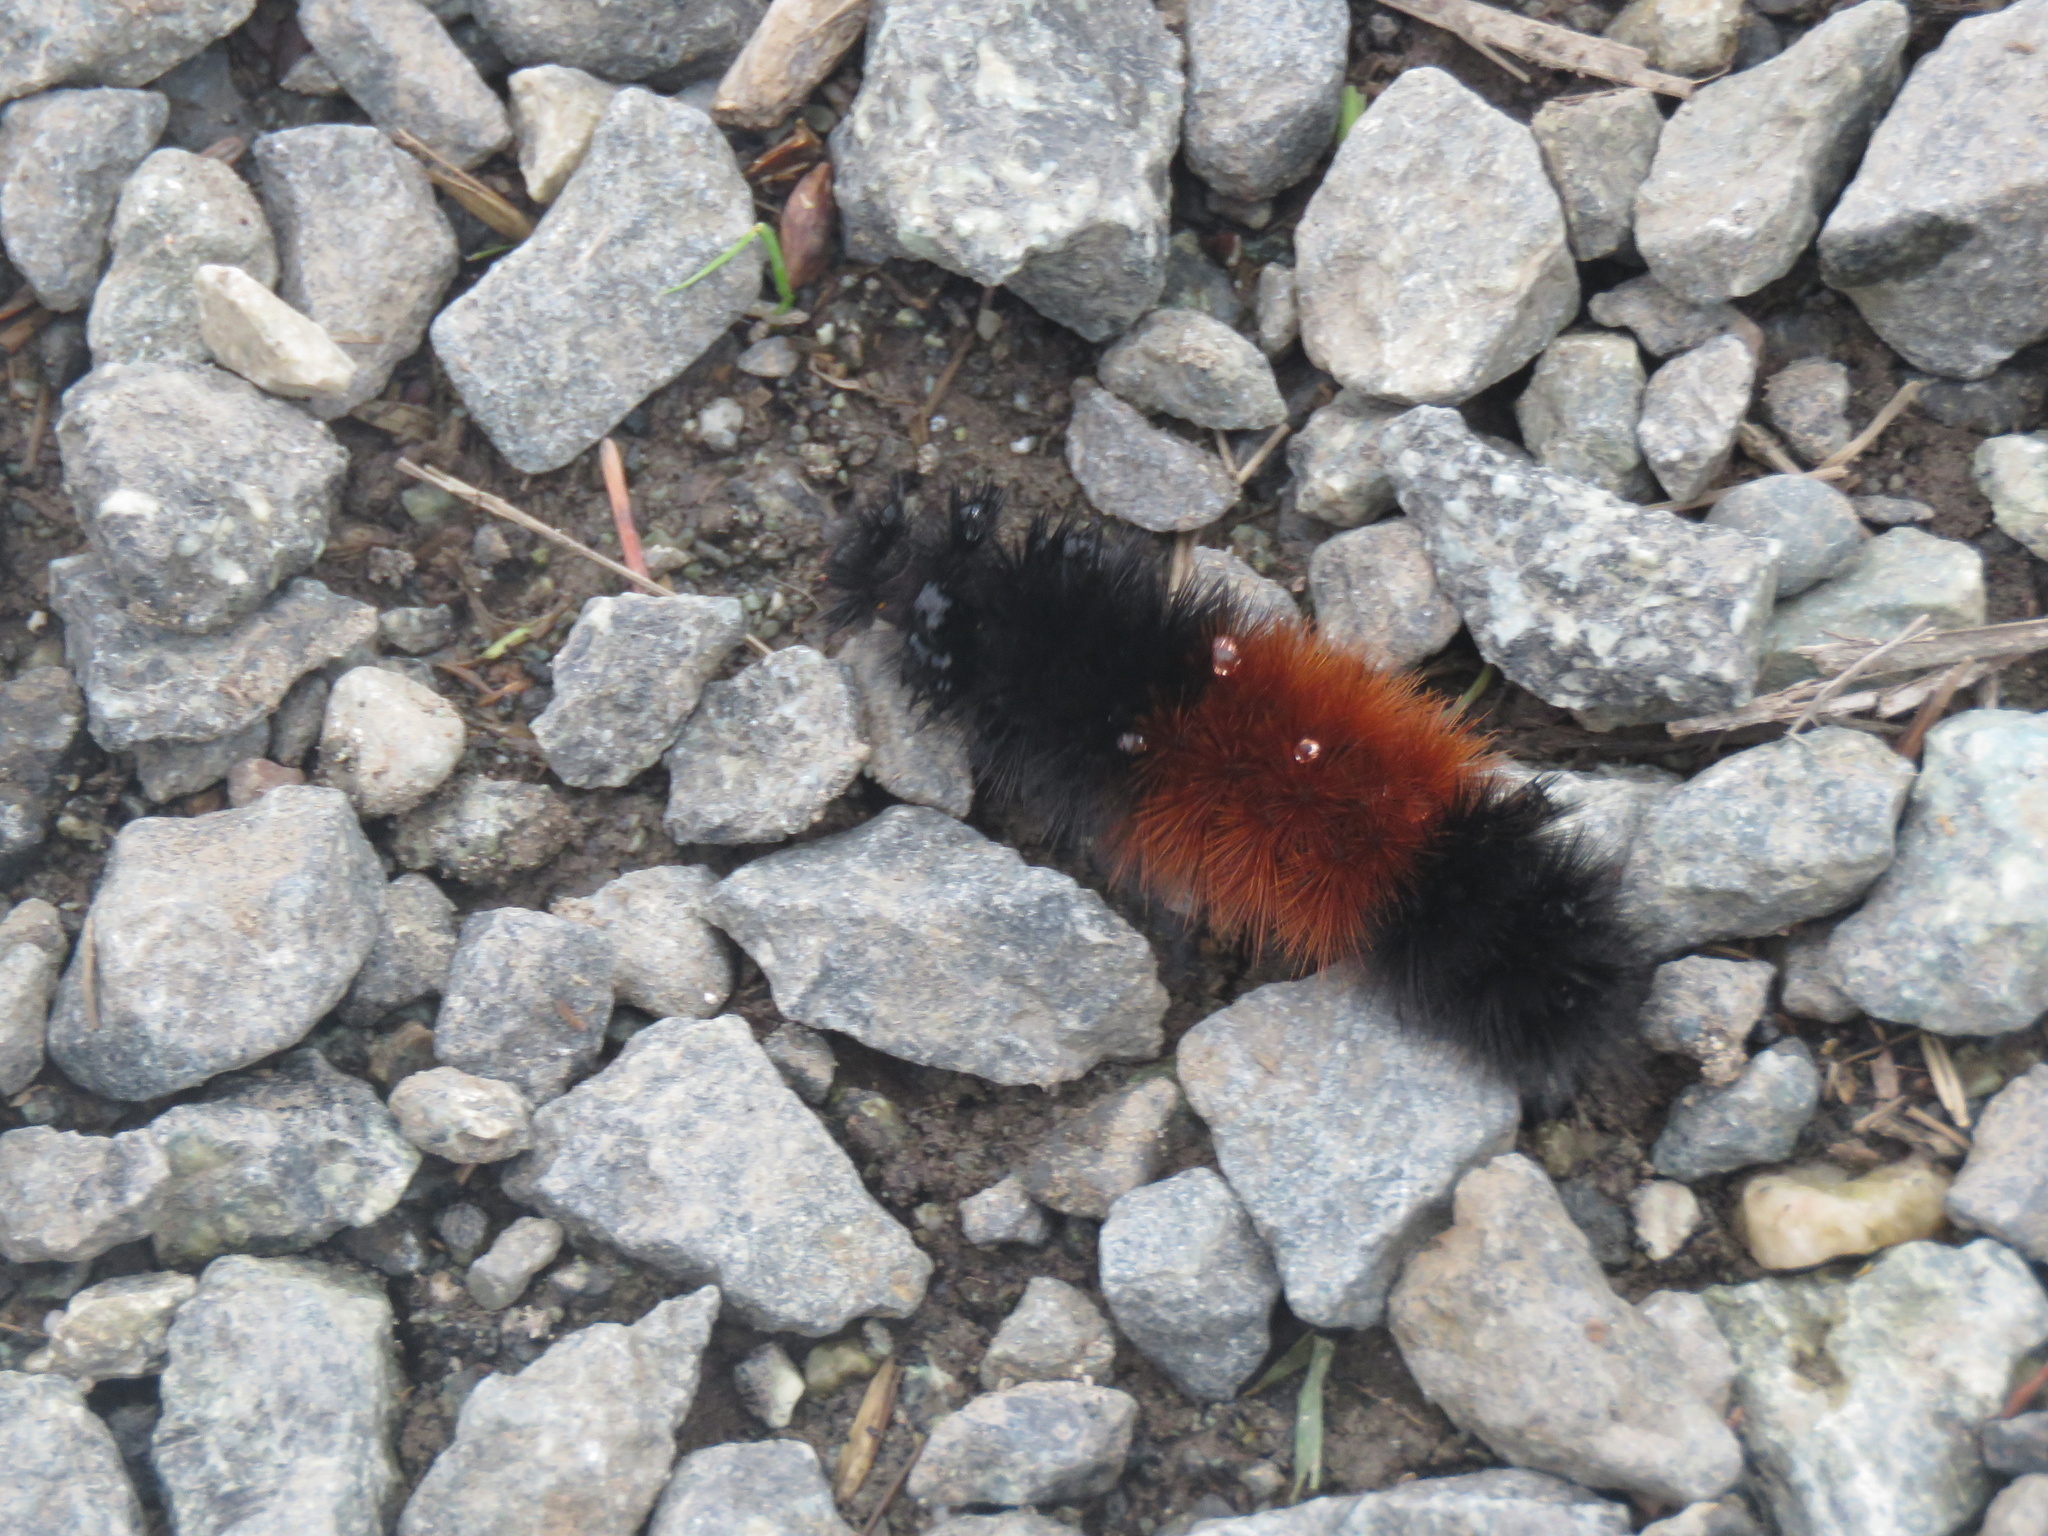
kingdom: Animalia
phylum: Arthropoda
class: Insecta
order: Lepidoptera
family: Erebidae
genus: Pyrrharctia
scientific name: Pyrrharctia isabella
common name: Isabella tiger moth
